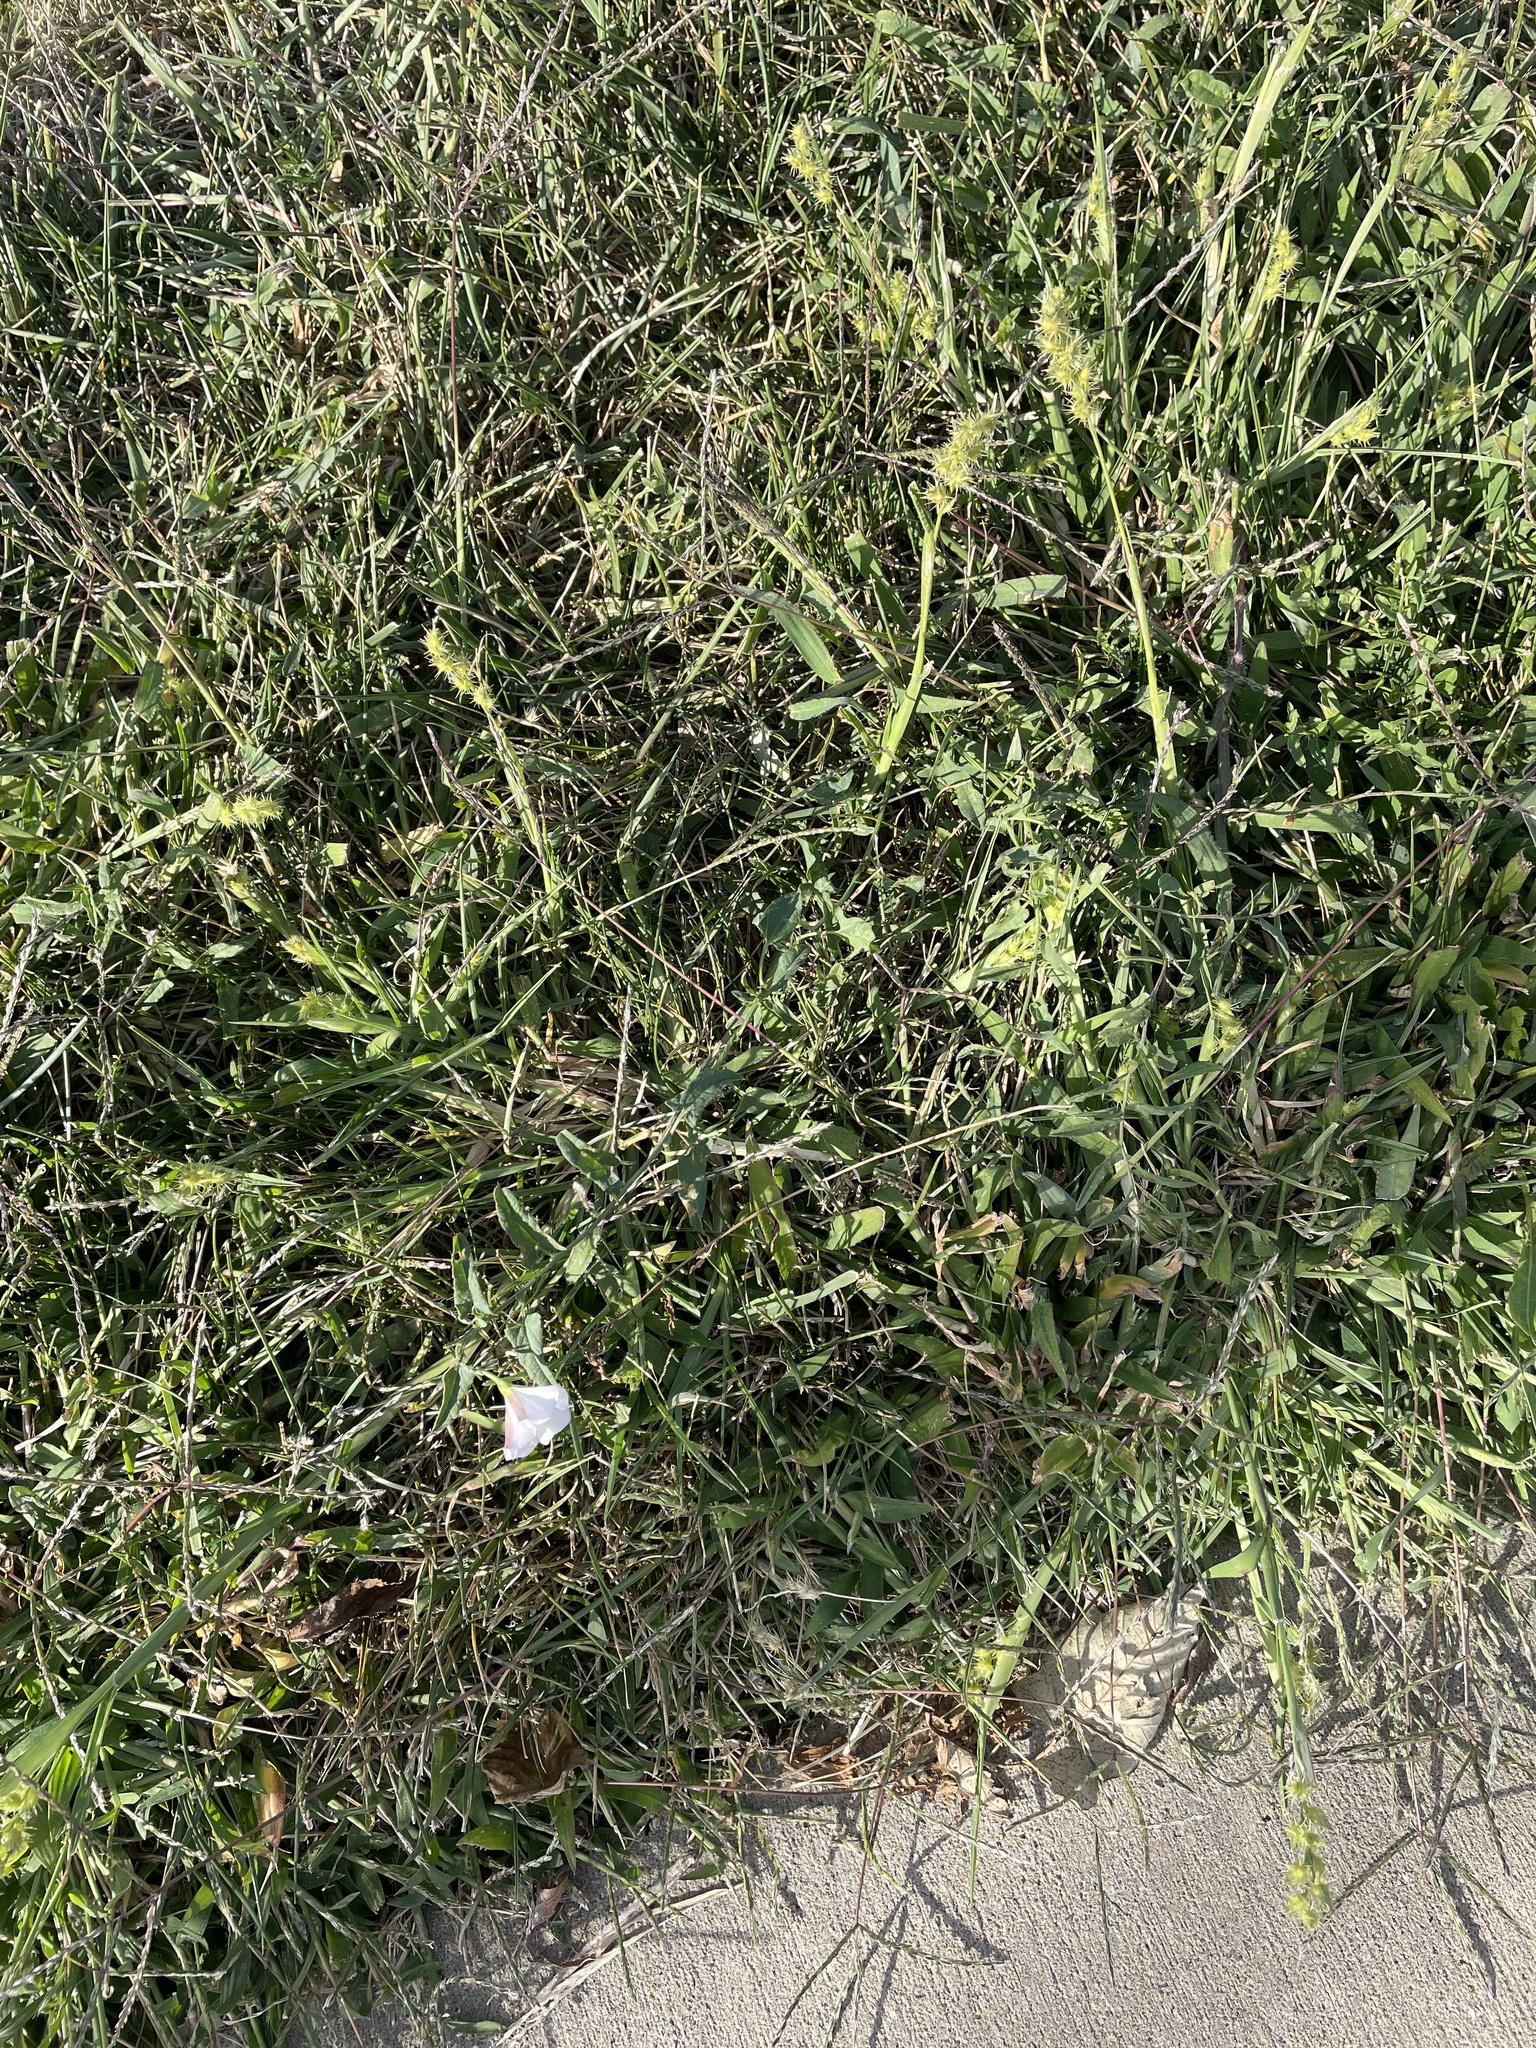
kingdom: Plantae
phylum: Tracheophyta
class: Magnoliopsida
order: Solanales
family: Convolvulaceae
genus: Convolvulus
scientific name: Convolvulus arvensis
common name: Field bindweed
